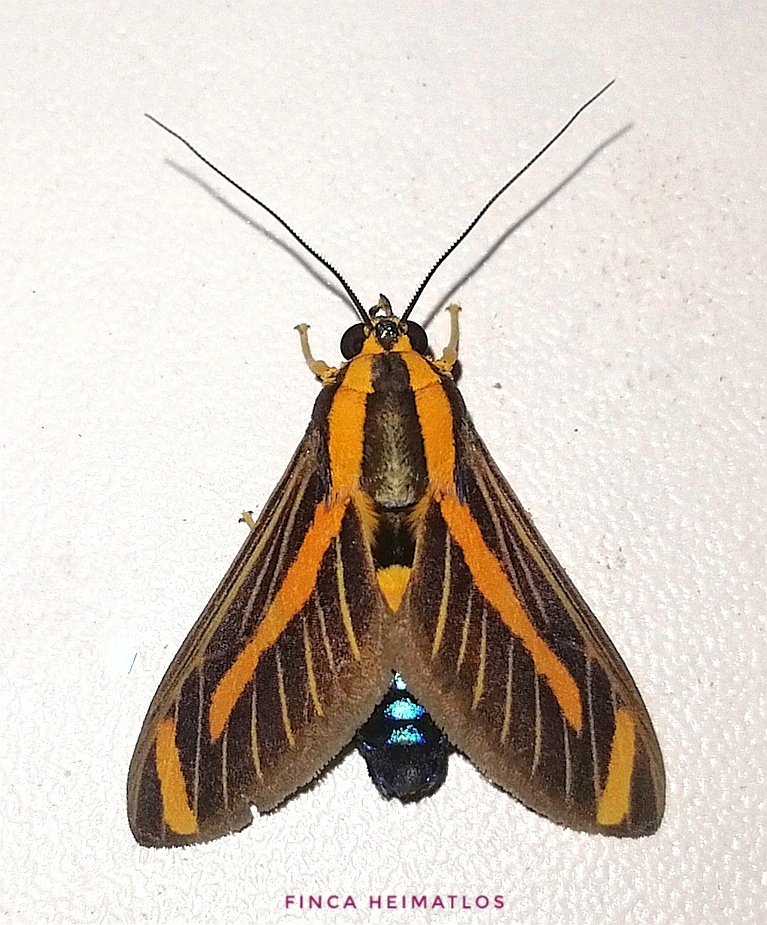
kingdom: Animalia
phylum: Arthropoda
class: Insecta
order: Lepidoptera
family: Erebidae
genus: Ormetica
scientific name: Ormetica sypilus
